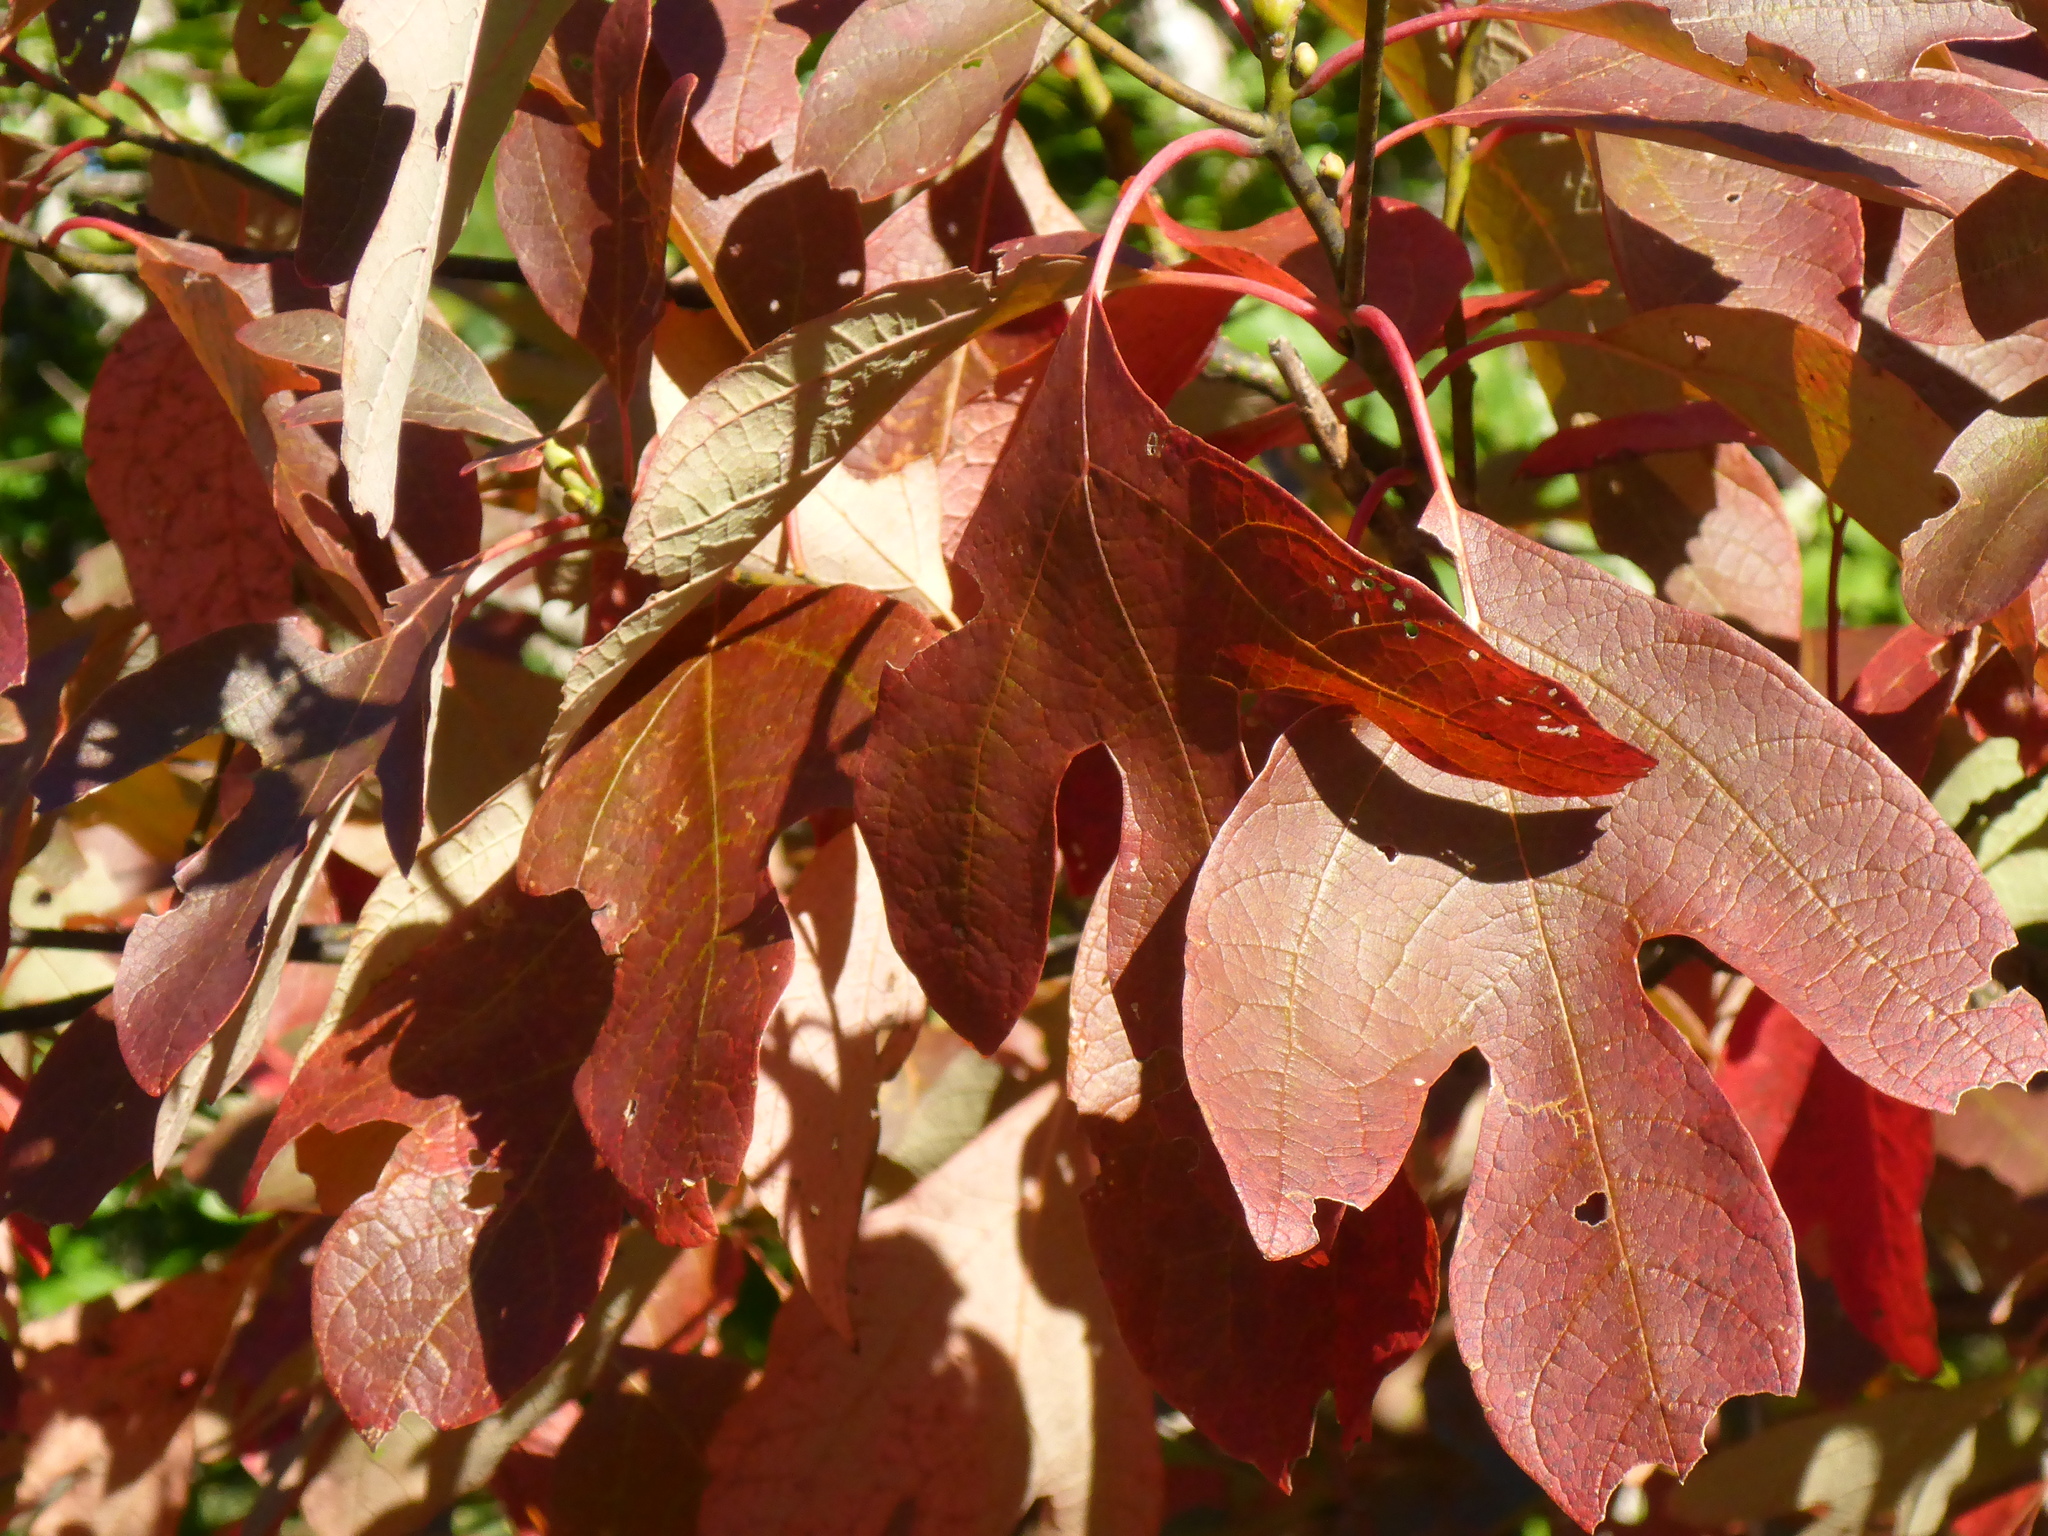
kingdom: Plantae
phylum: Tracheophyta
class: Magnoliopsida
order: Laurales
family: Lauraceae
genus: Sassafras
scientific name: Sassafras albidum
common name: Sassafras
